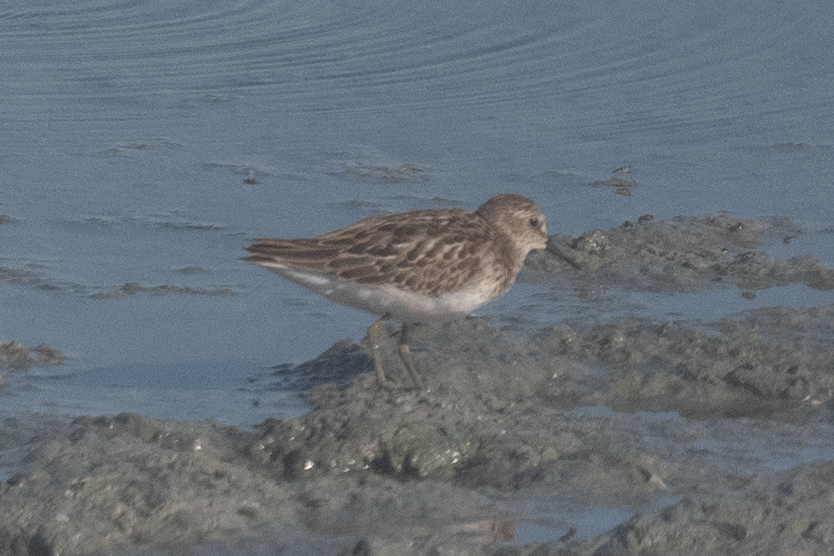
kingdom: Animalia
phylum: Chordata
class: Aves
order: Charadriiformes
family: Scolopacidae
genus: Calidris
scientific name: Calidris minutilla
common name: Least sandpiper
